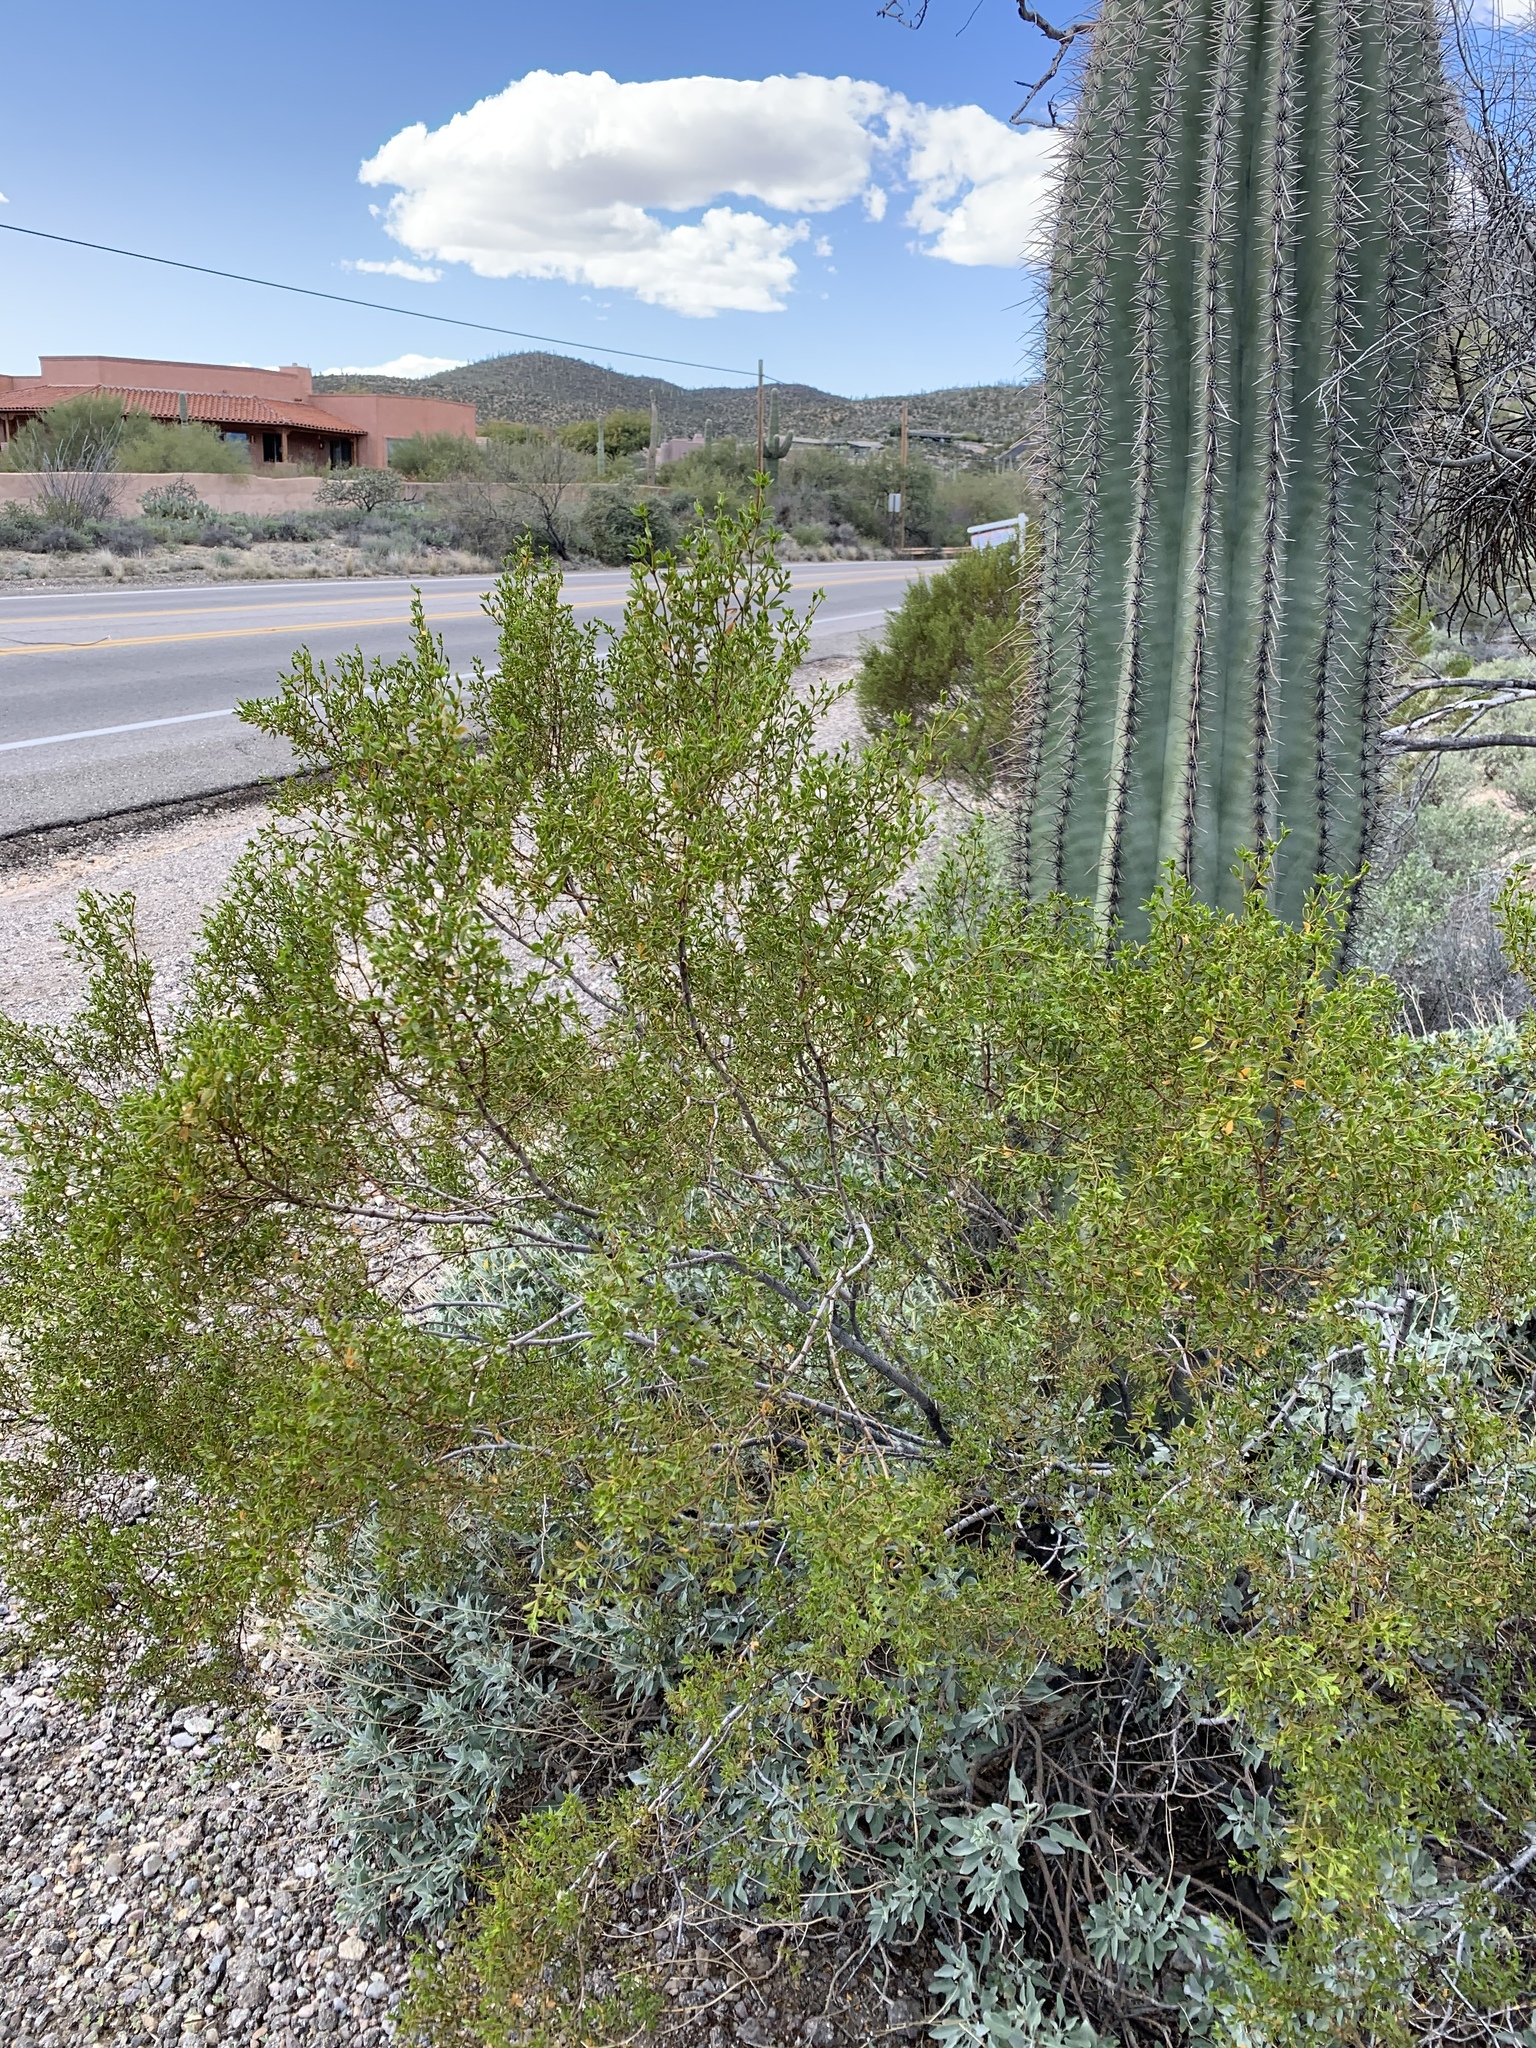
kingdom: Plantae
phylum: Tracheophyta
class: Magnoliopsida
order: Zygophyllales
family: Zygophyllaceae
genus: Larrea
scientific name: Larrea tridentata
